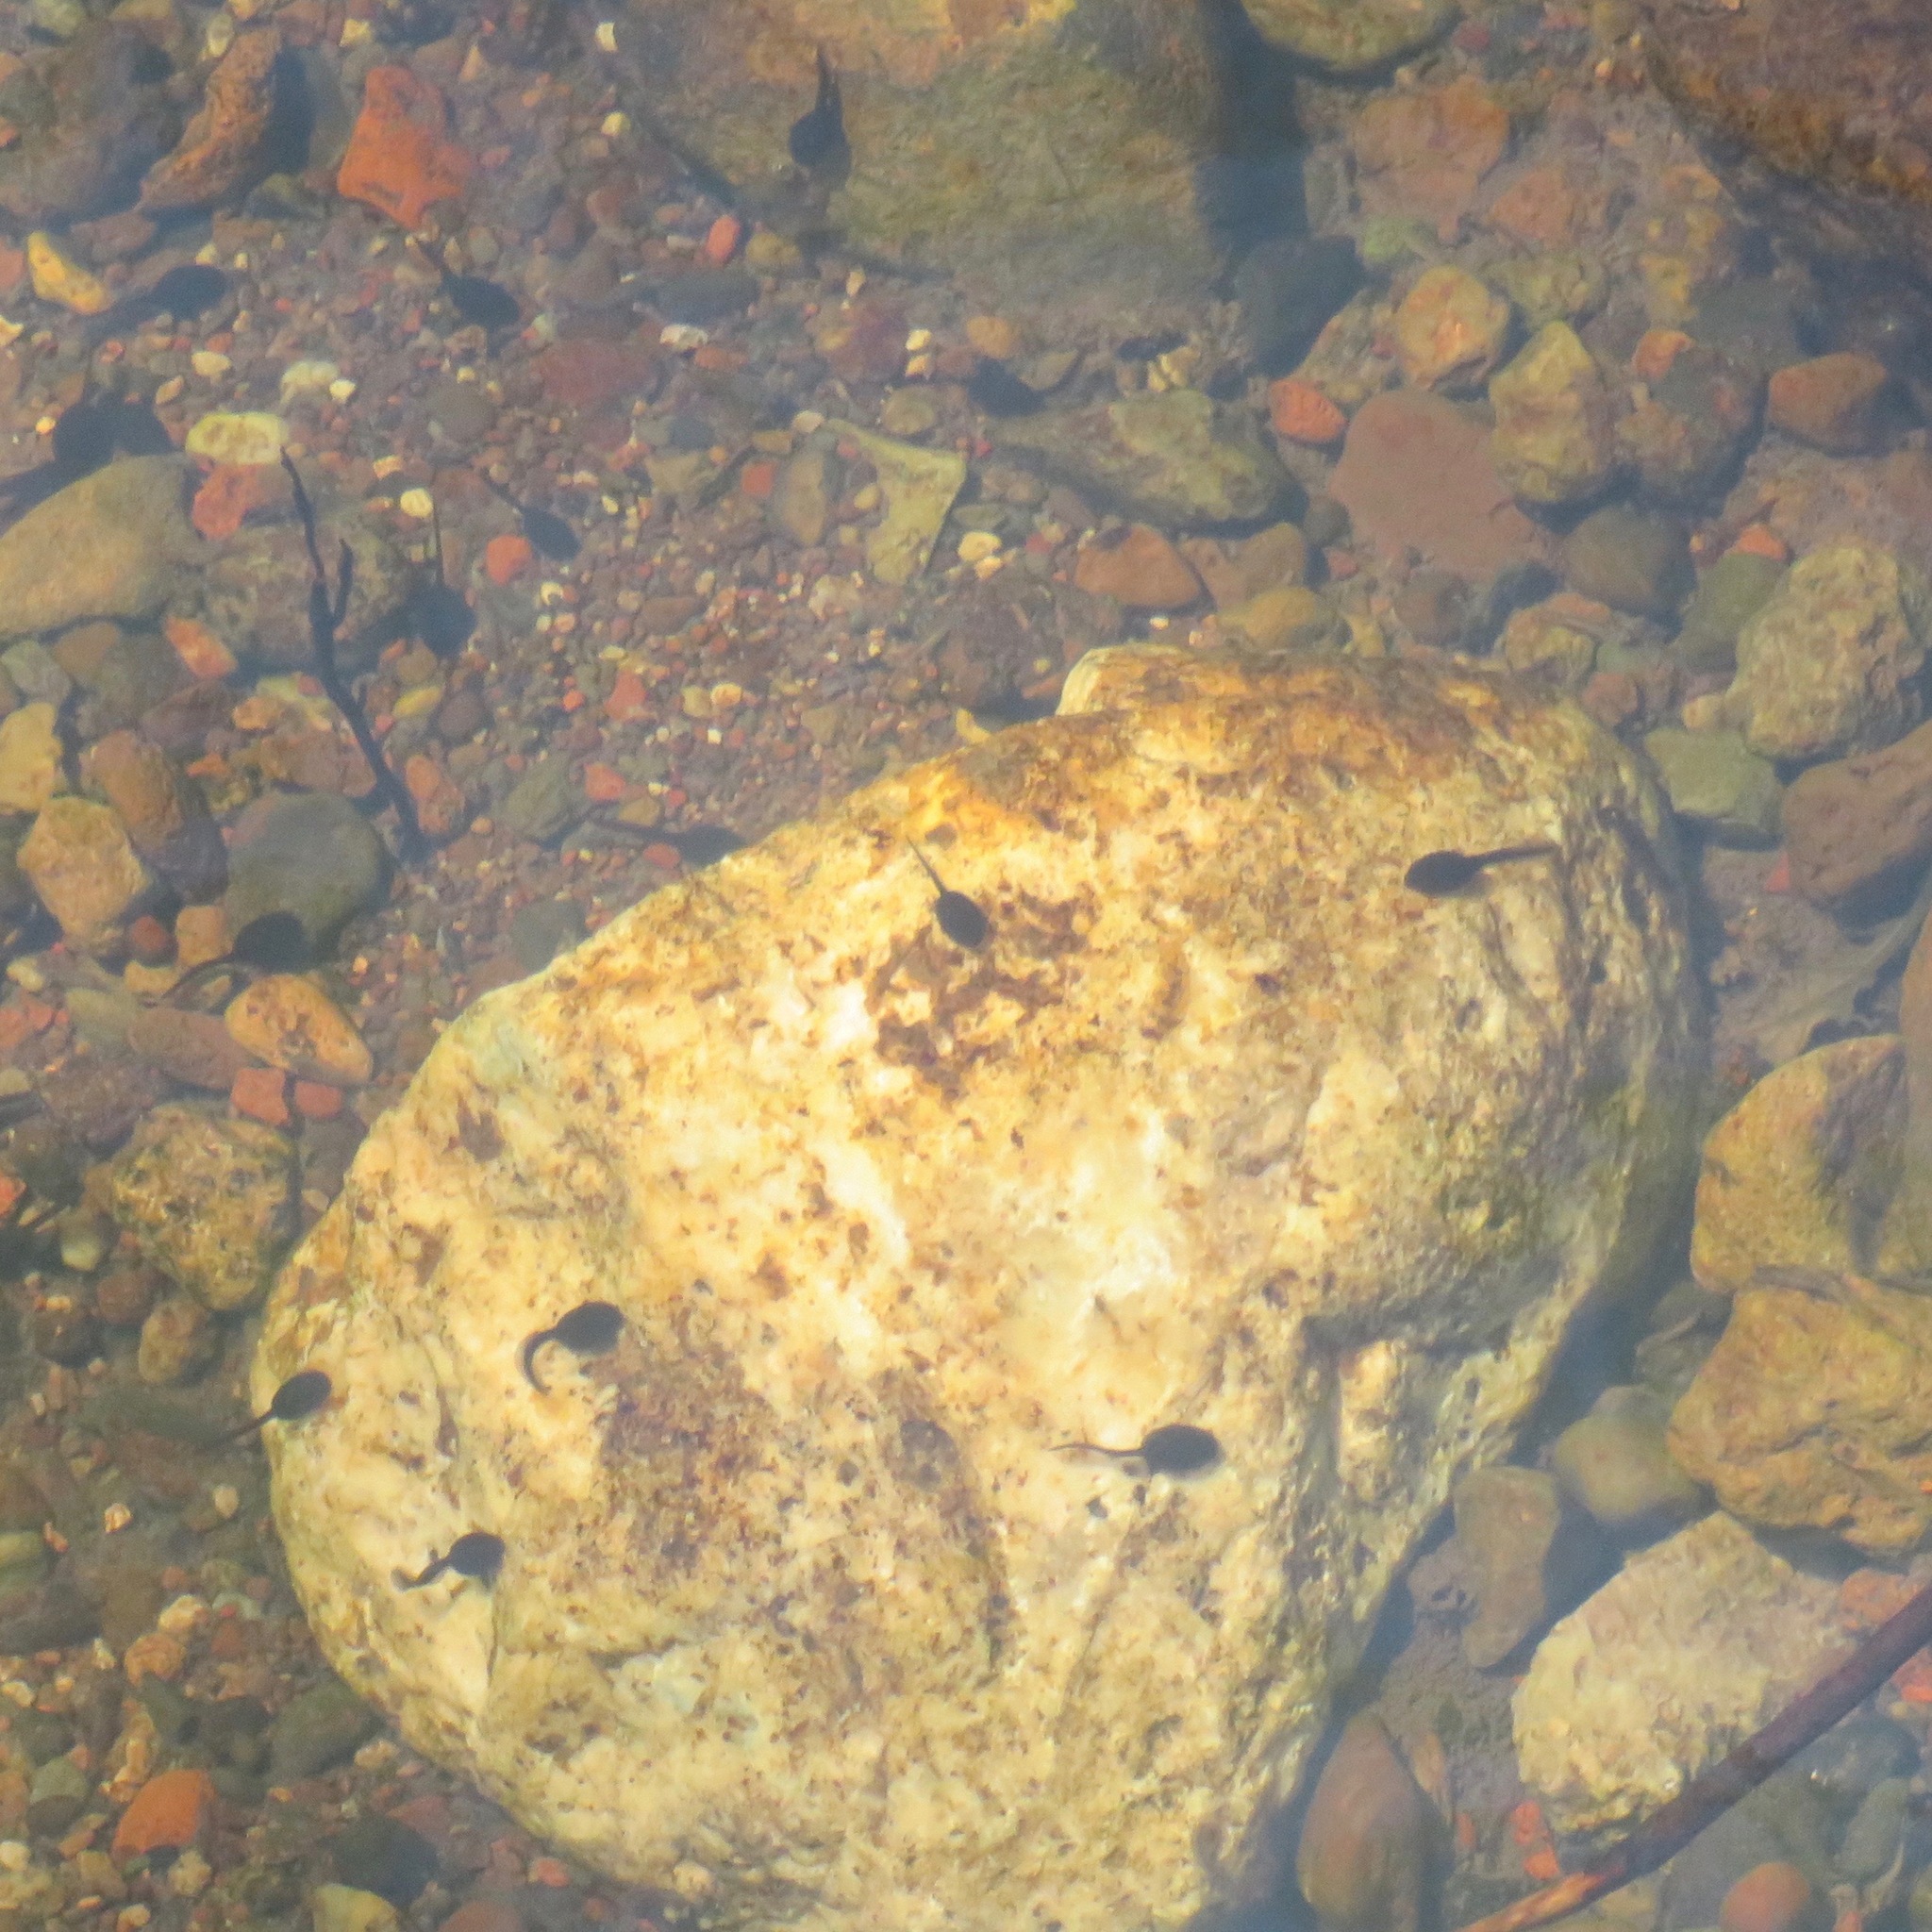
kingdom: Animalia
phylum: Chordata
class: Amphibia
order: Anura
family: Bufonidae
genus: Anaxyrus
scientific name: Anaxyrus boreas
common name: Western toad
